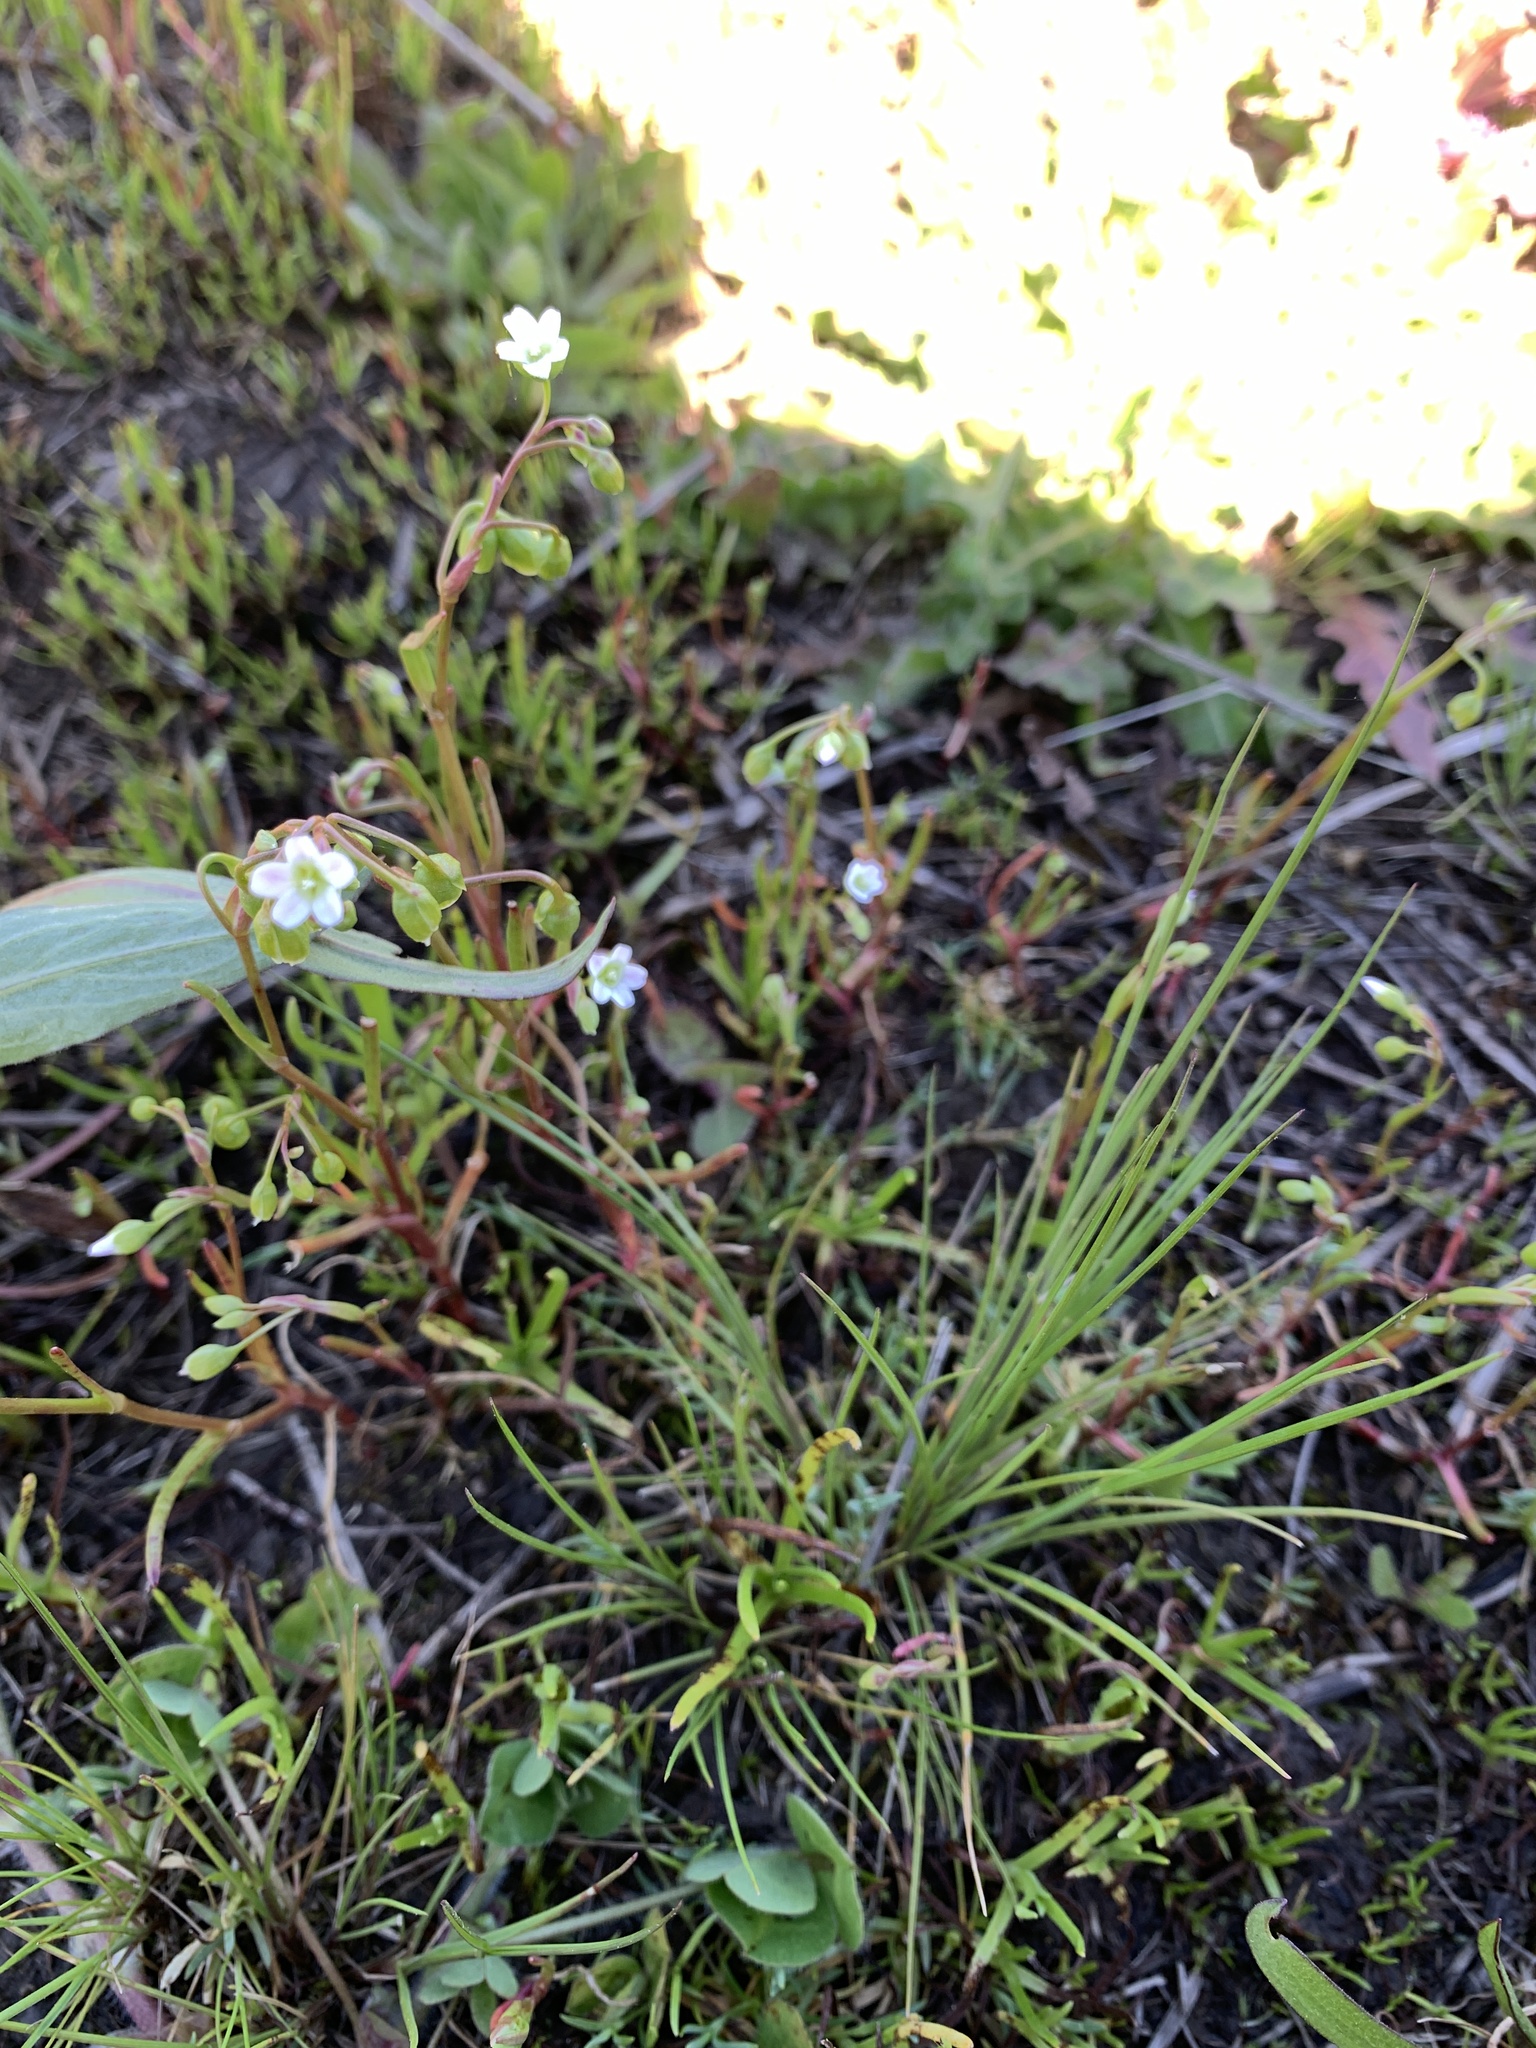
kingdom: Plantae
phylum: Tracheophyta
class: Magnoliopsida
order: Caryophyllales
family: Montiaceae
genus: Montia
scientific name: Montia linearis
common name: Narrow-leaf montia
